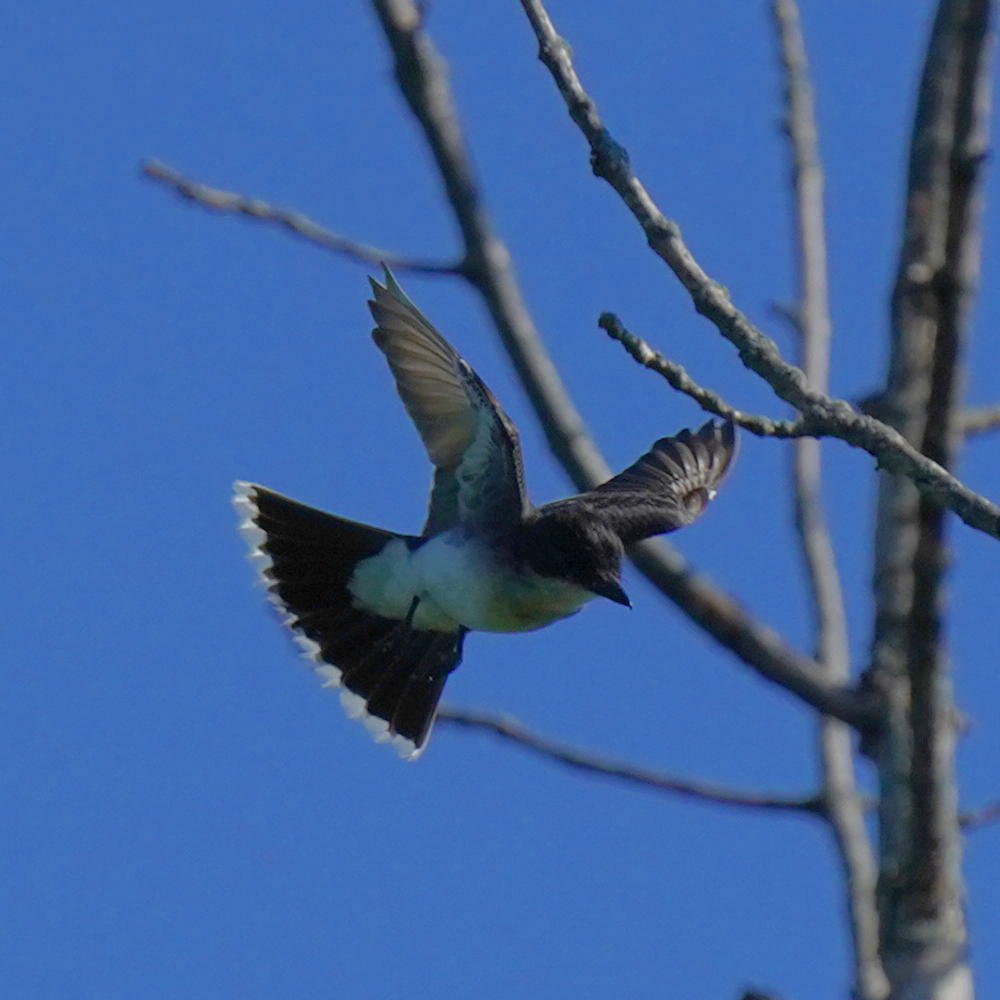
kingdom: Animalia
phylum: Chordata
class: Aves
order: Passeriformes
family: Tyrannidae
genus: Tyrannus
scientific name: Tyrannus tyrannus
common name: Eastern kingbird
